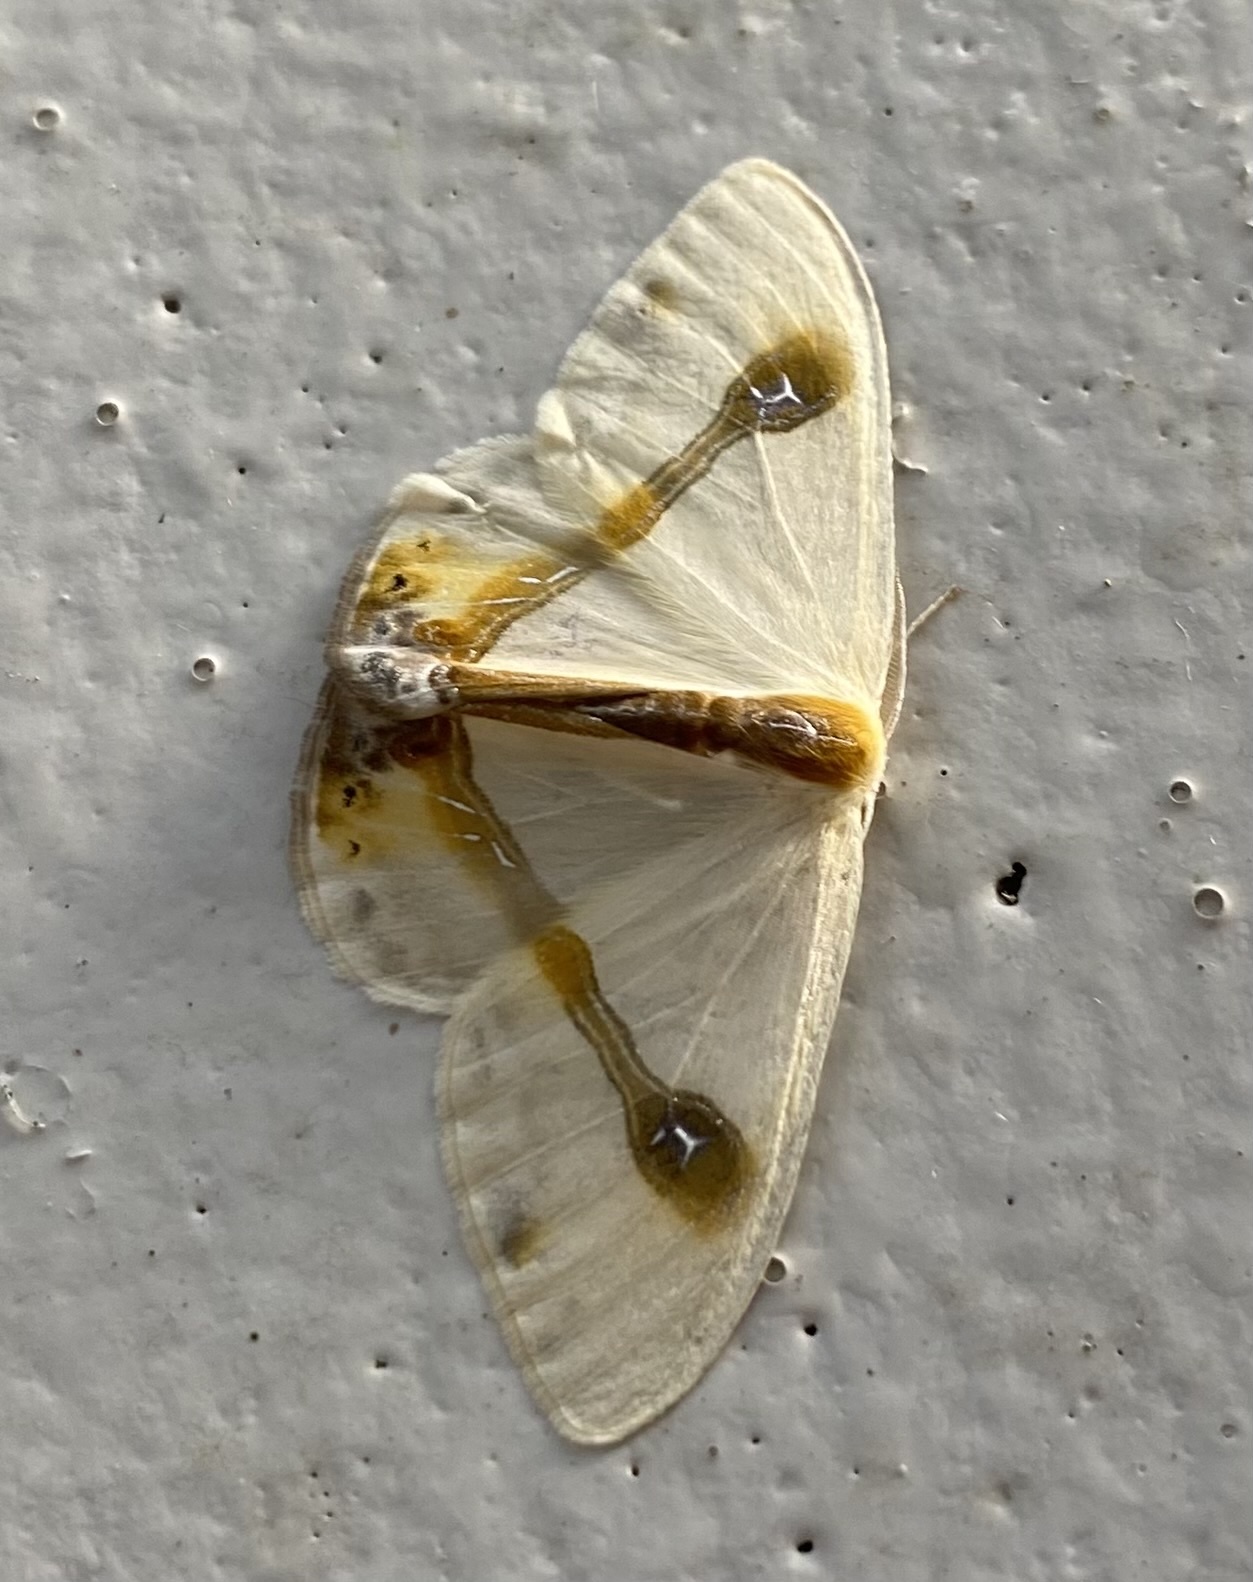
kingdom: Animalia
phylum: Arthropoda
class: Insecta
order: Lepidoptera
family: Drepanidae
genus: Macrocilix
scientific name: Macrocilix mysticata
